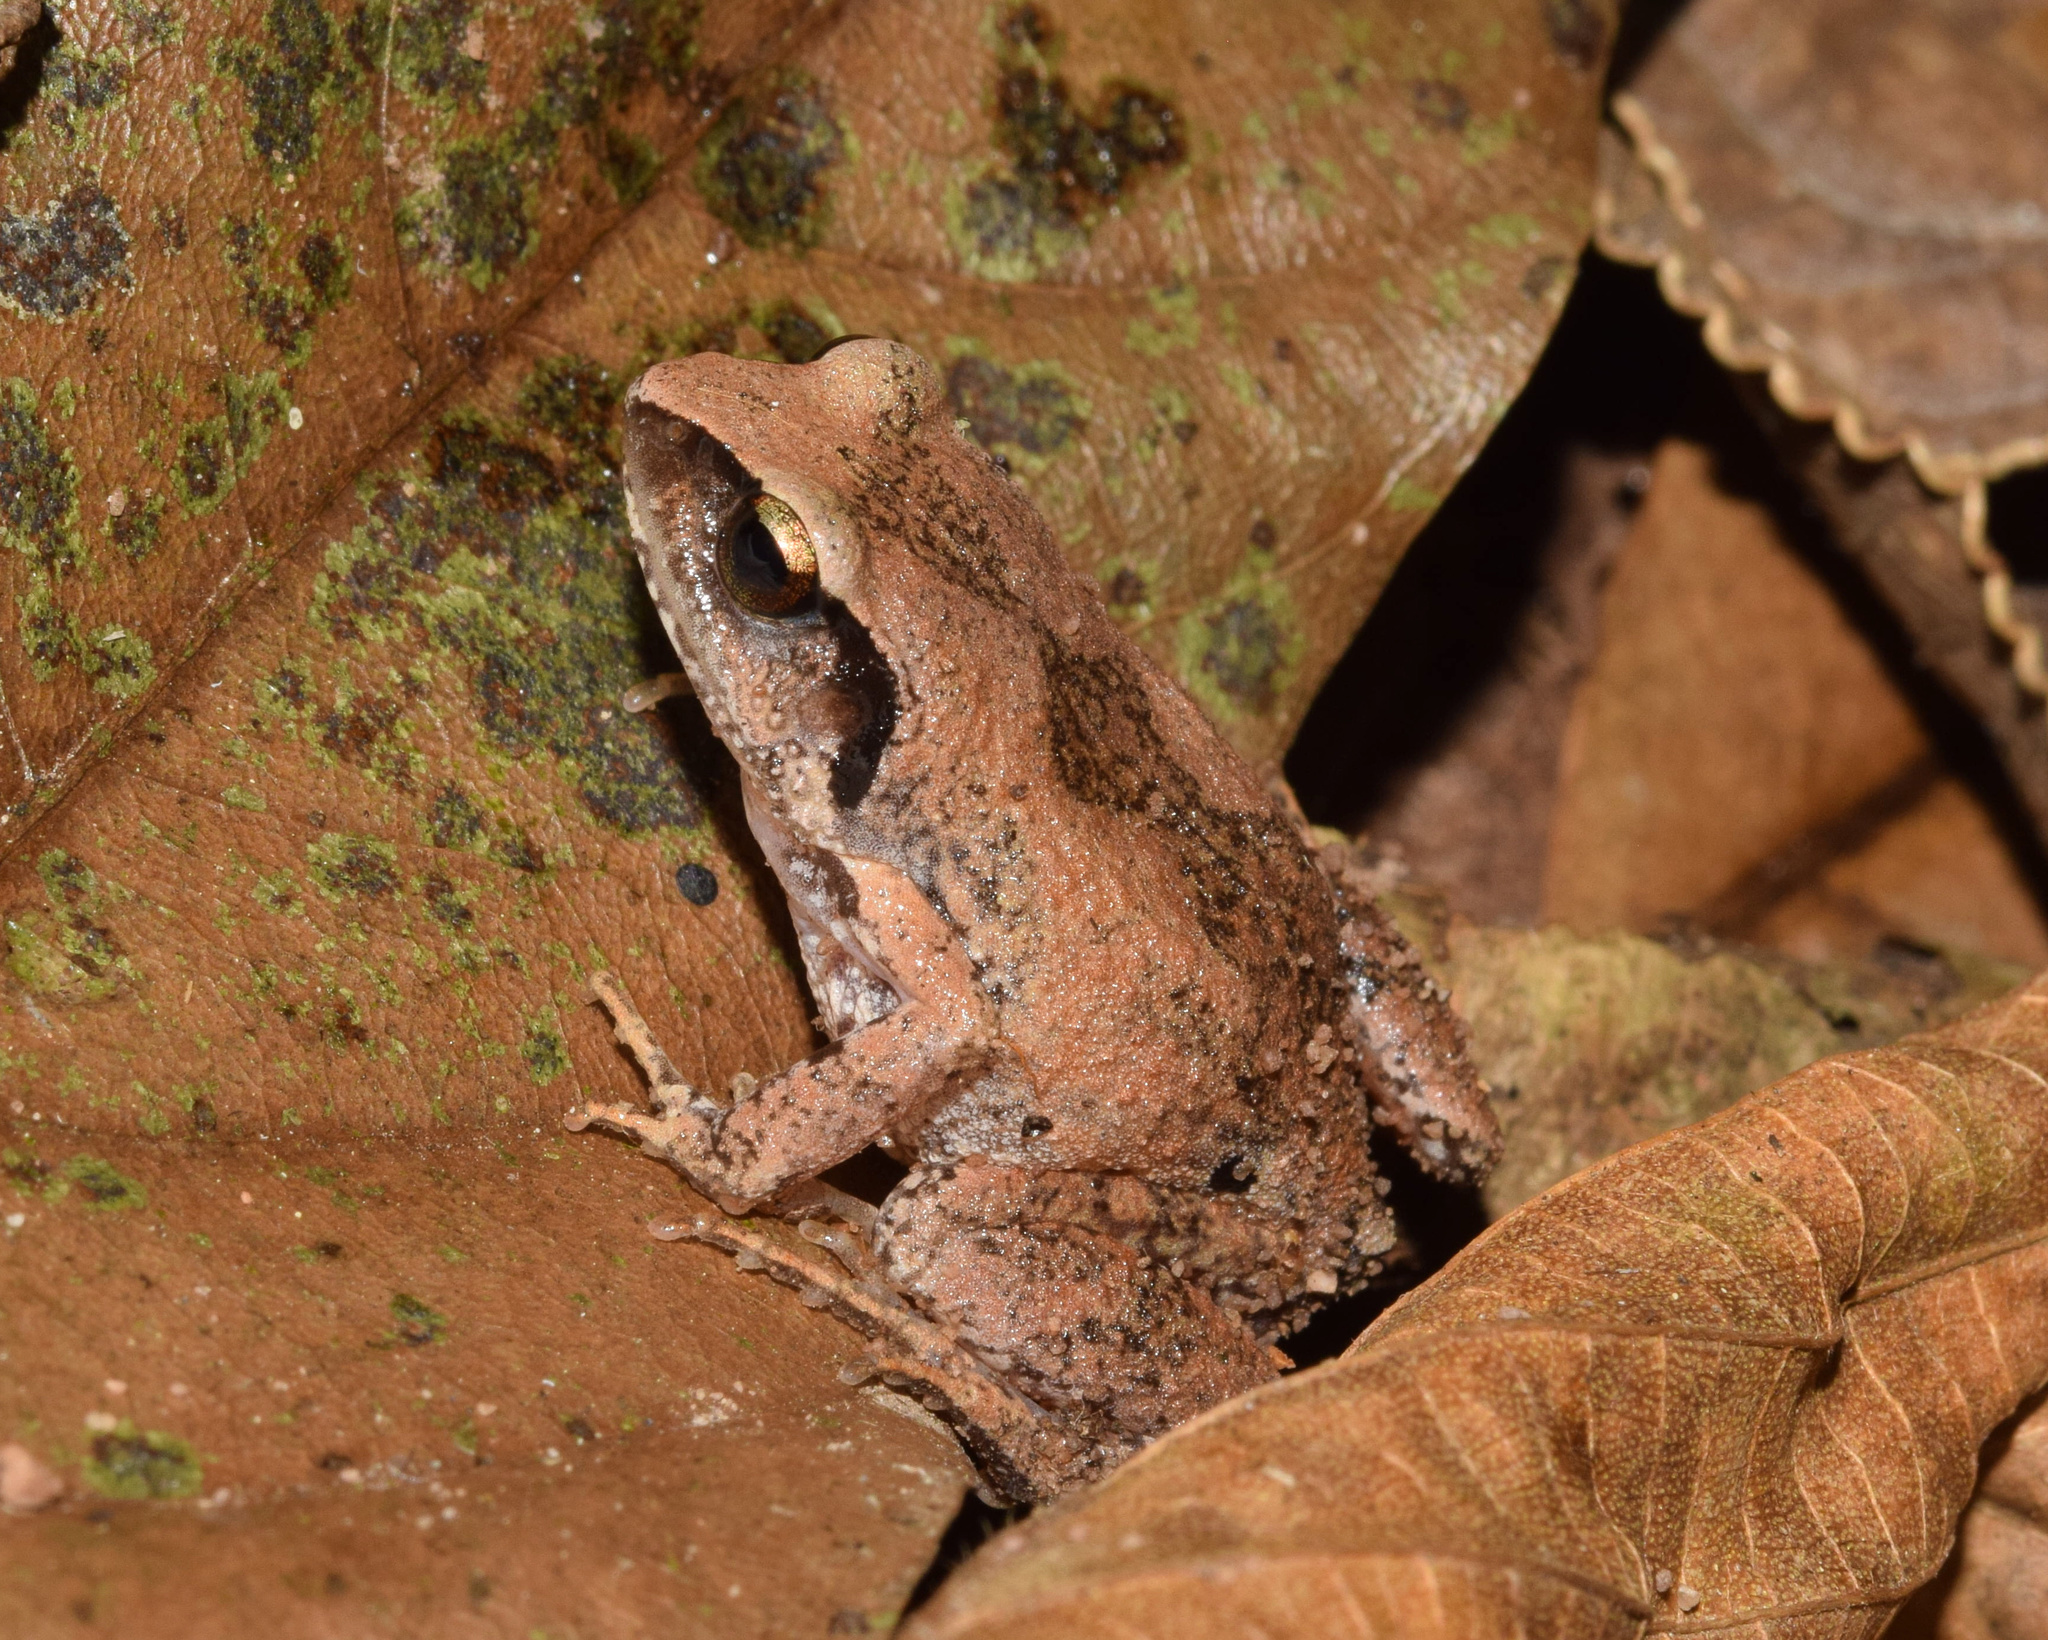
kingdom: Animalia
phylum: Chordata
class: Amphibia
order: Anura
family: Arthroleptidae
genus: Arthroleptis
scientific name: Arthroleptis wahlbergii
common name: Bush squeaker
